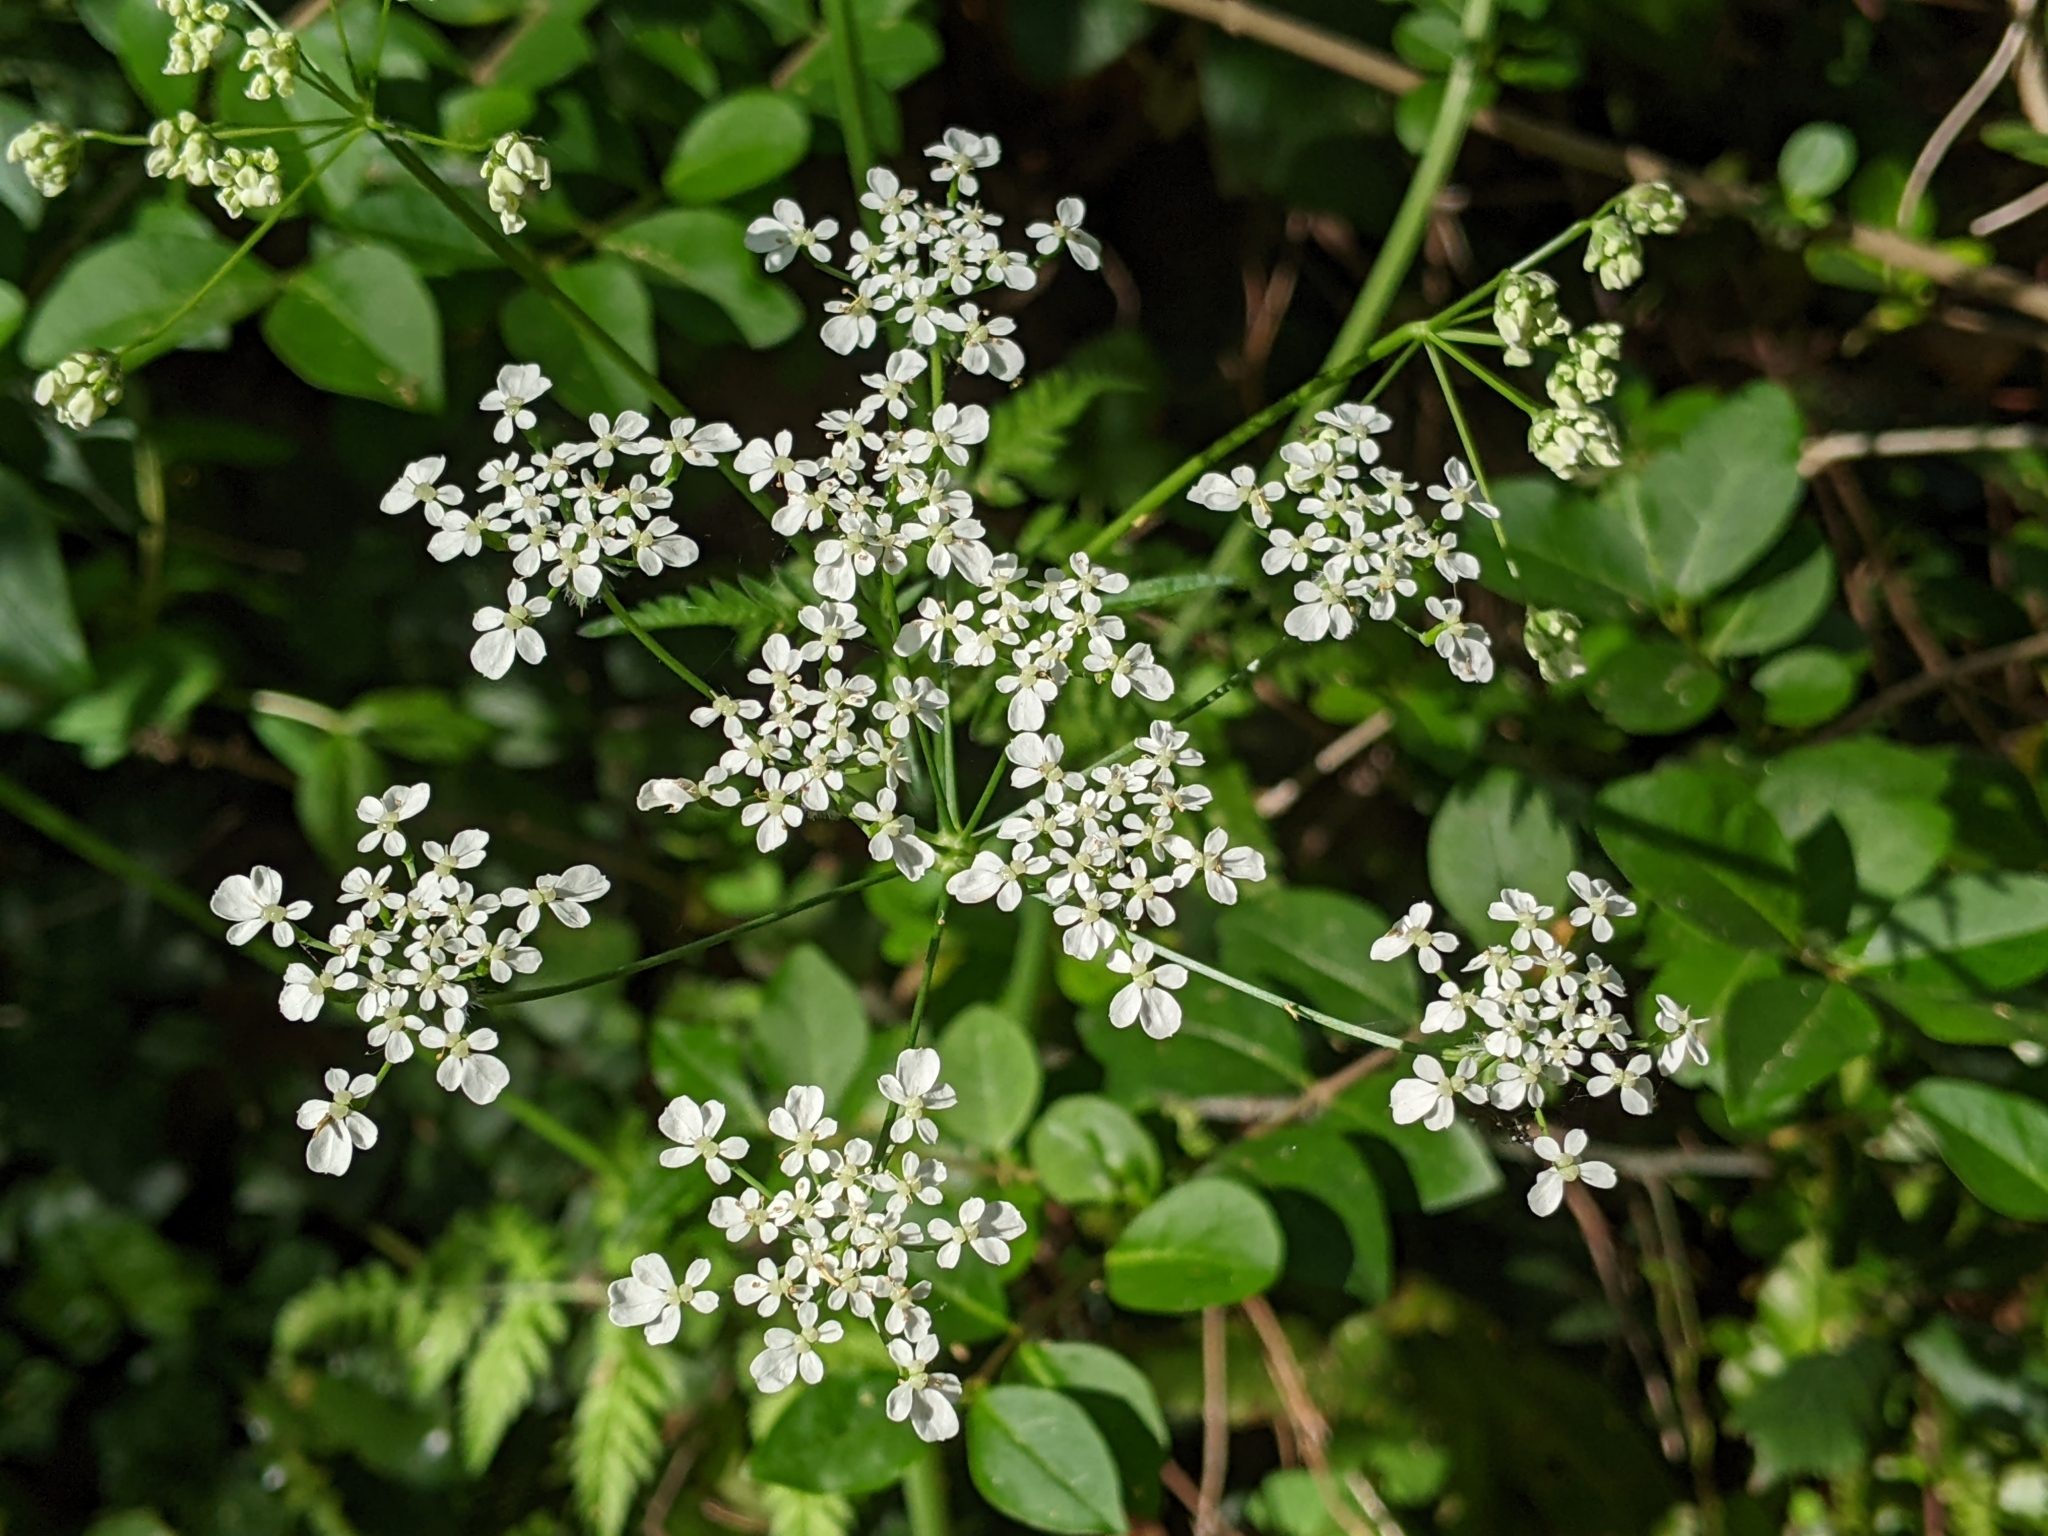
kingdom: Plantae
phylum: Tracheophyta
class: Magnoliopsida
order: Apiales
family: Apiaceae
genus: Anthriscus
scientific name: Anthriscus sylvestris
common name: Cow parsley
